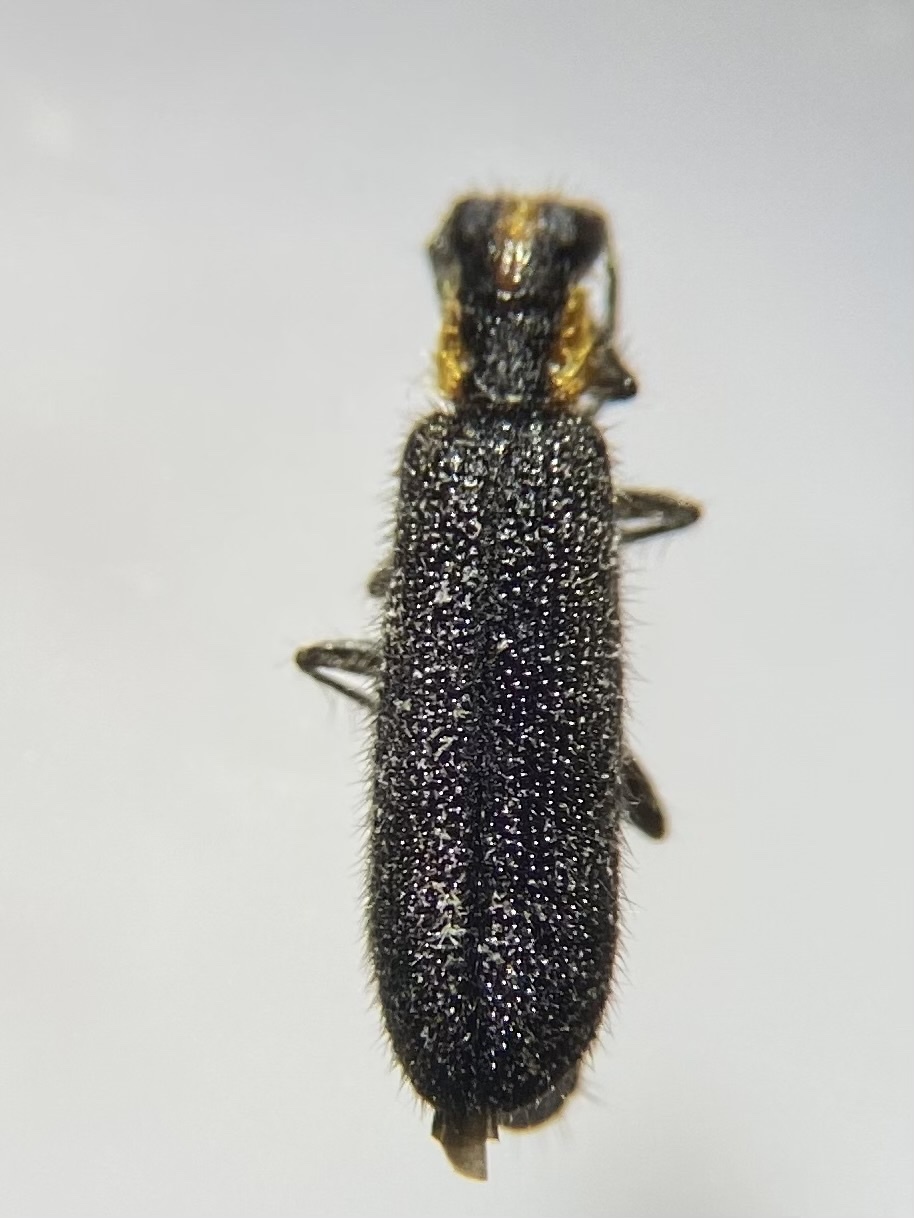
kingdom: Animalia
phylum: Arthropoda
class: Insecta
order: Coleoptera
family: Cleridae
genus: Pyticeroides
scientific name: Pyticeroides laticornis
